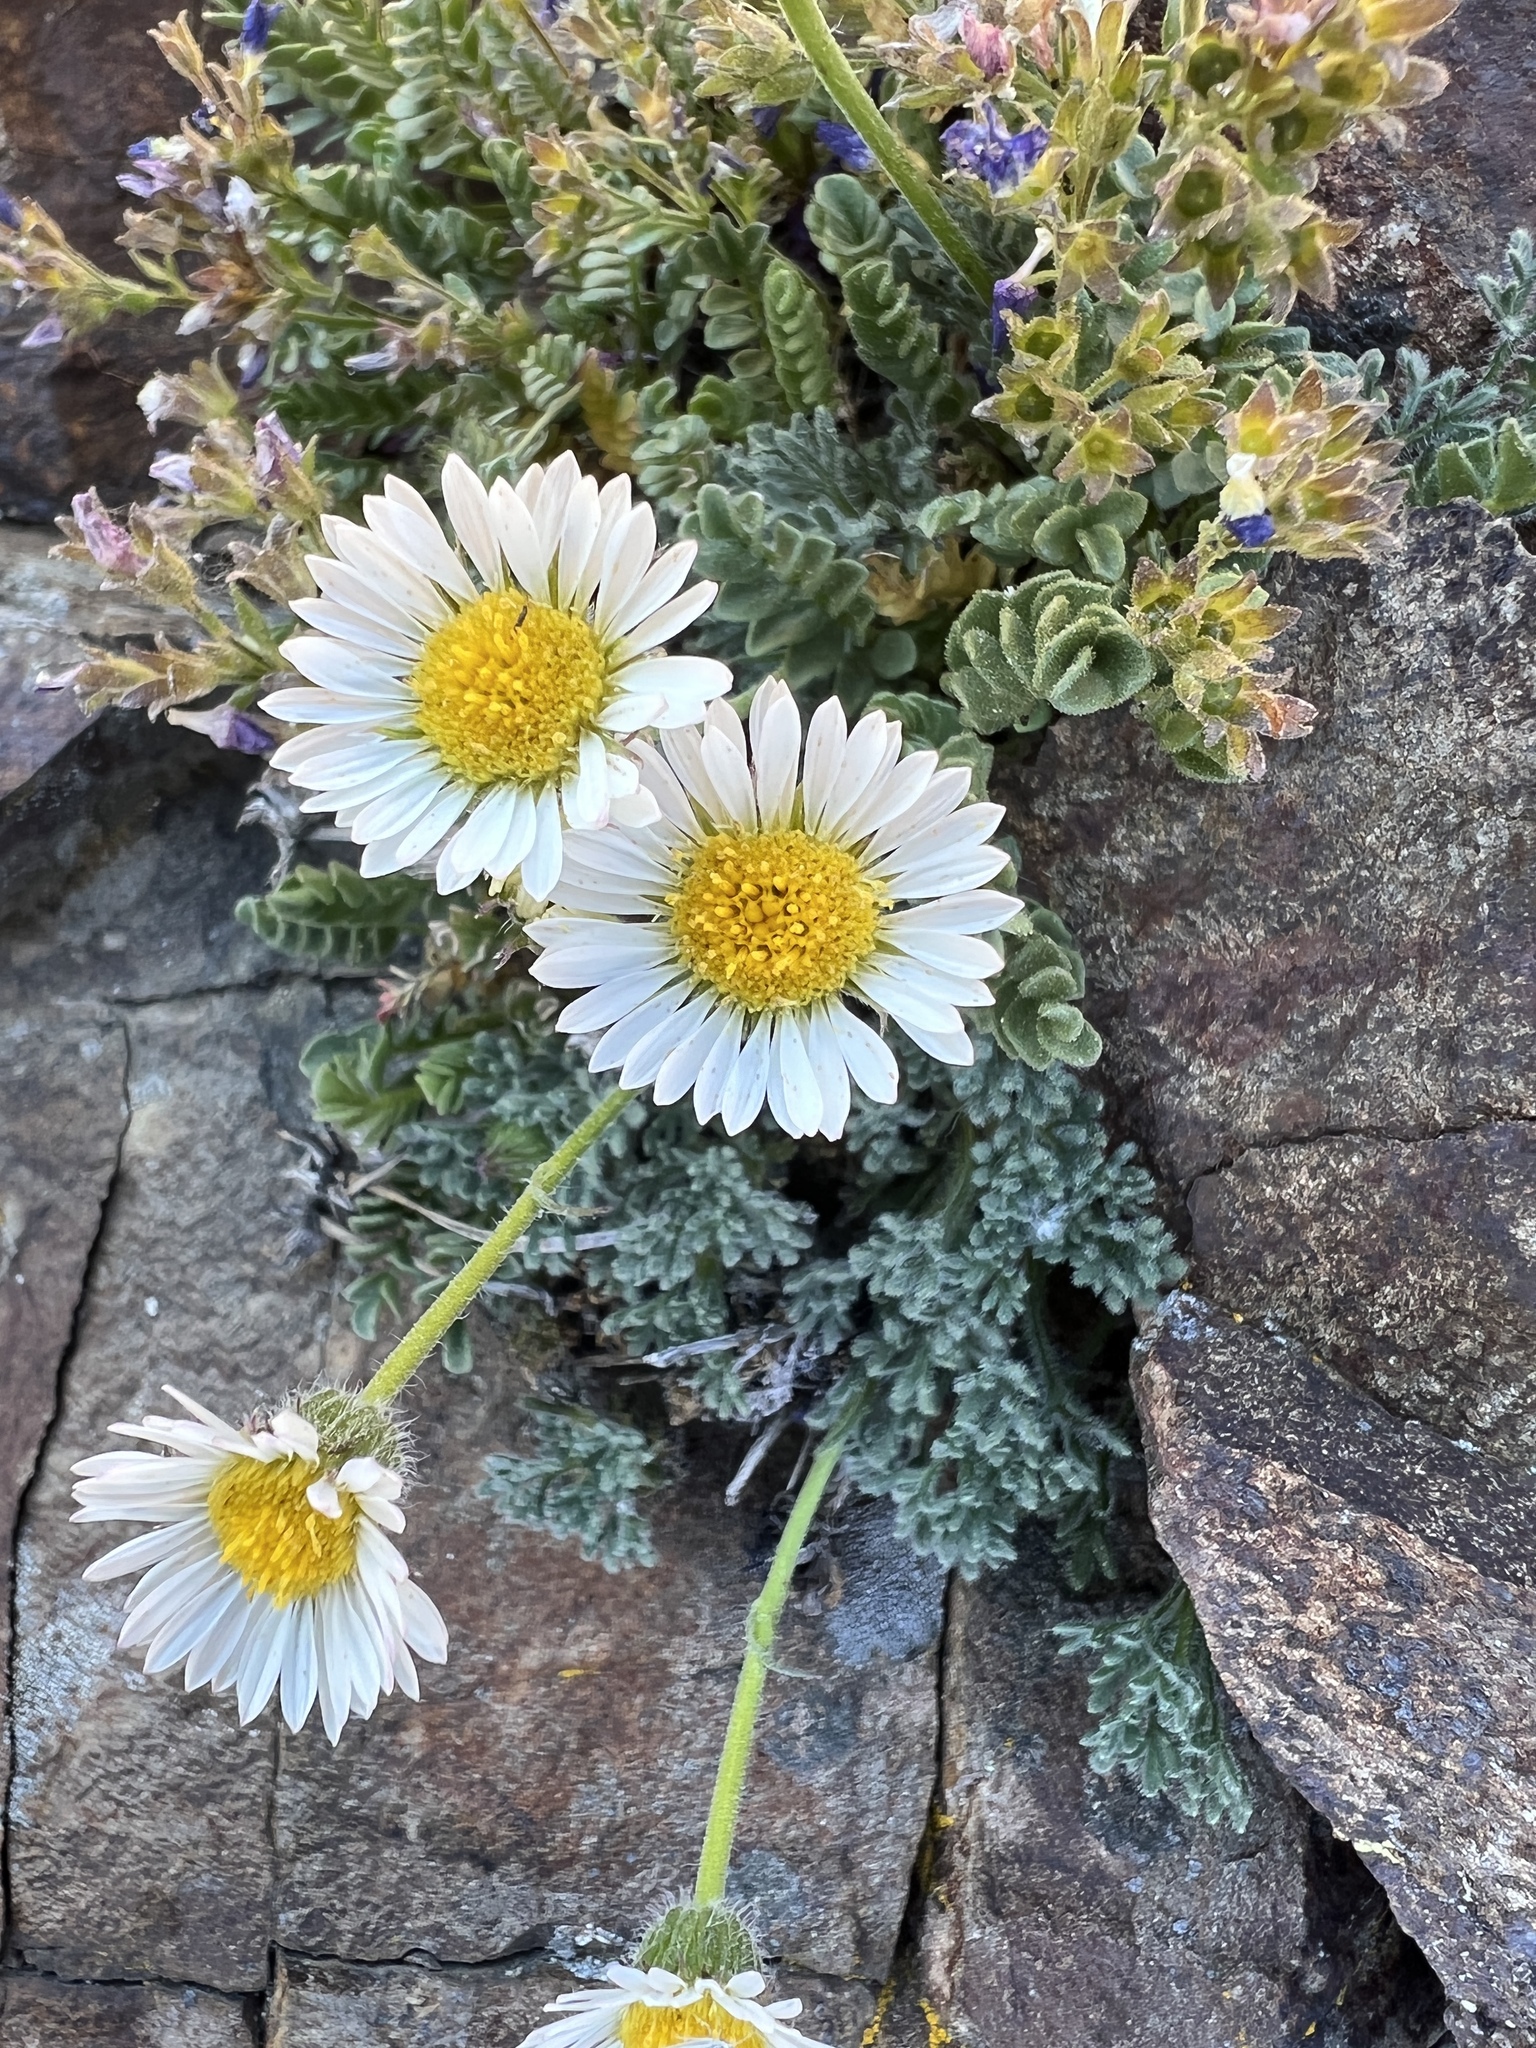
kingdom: Plantae
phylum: Tracheophyta
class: Magnoliopsida
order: Asterales
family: Asteraceae
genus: Erigeron
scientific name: Erigeron compositus
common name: Dwarf mountain fleabane
